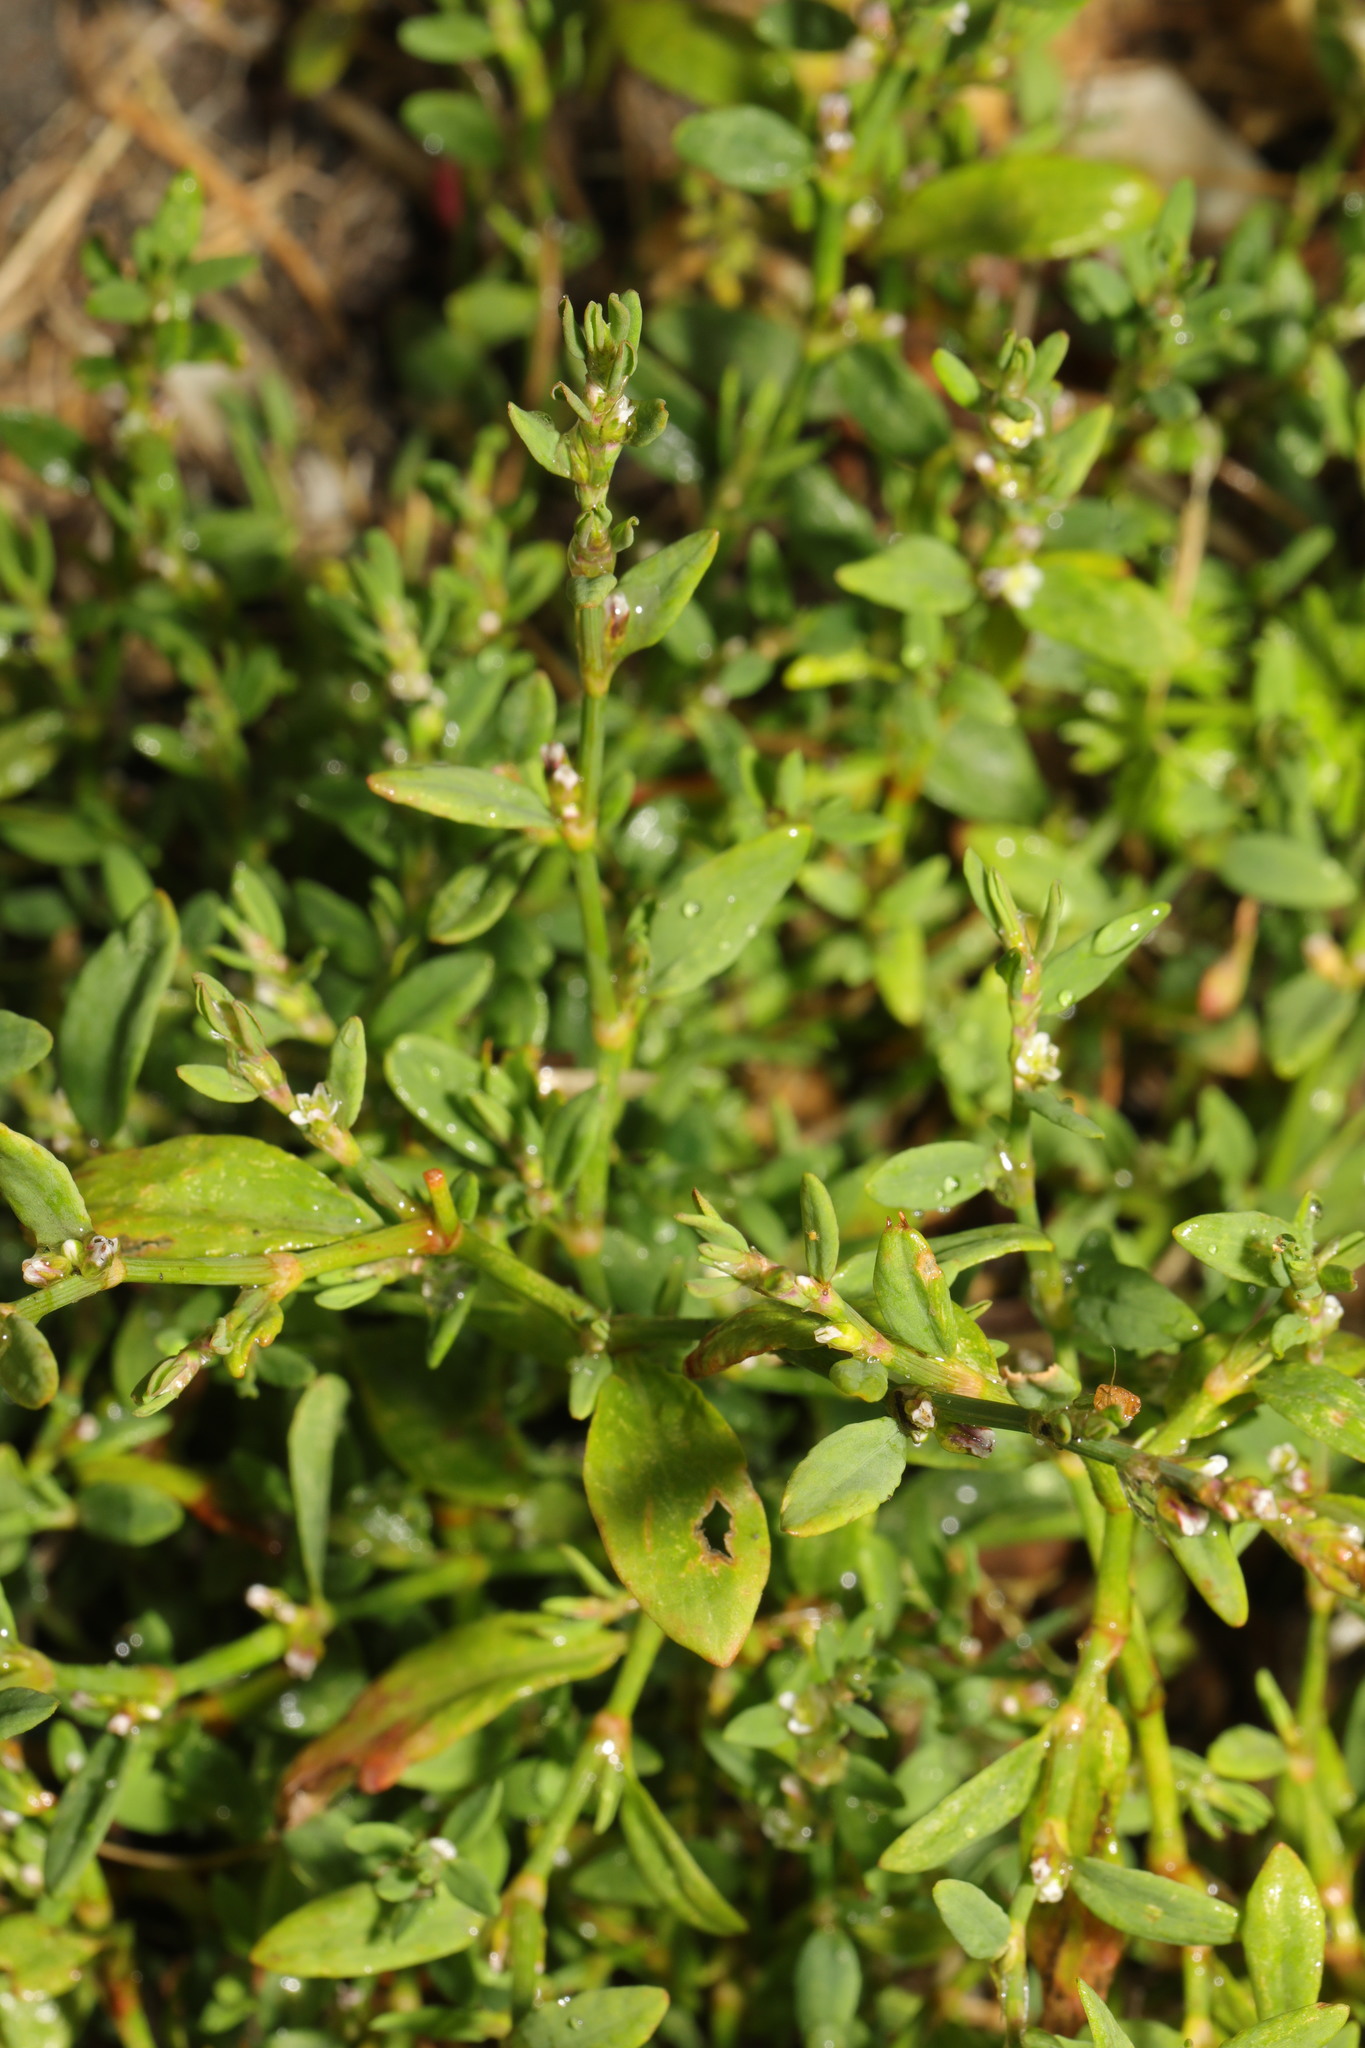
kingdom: Plantae
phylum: Tracheophyta
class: Magnoliopsida
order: Caryophyllales
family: Polygonaceae
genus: Polygonum
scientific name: Polygonum aviculare
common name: Prostrate knotweed
